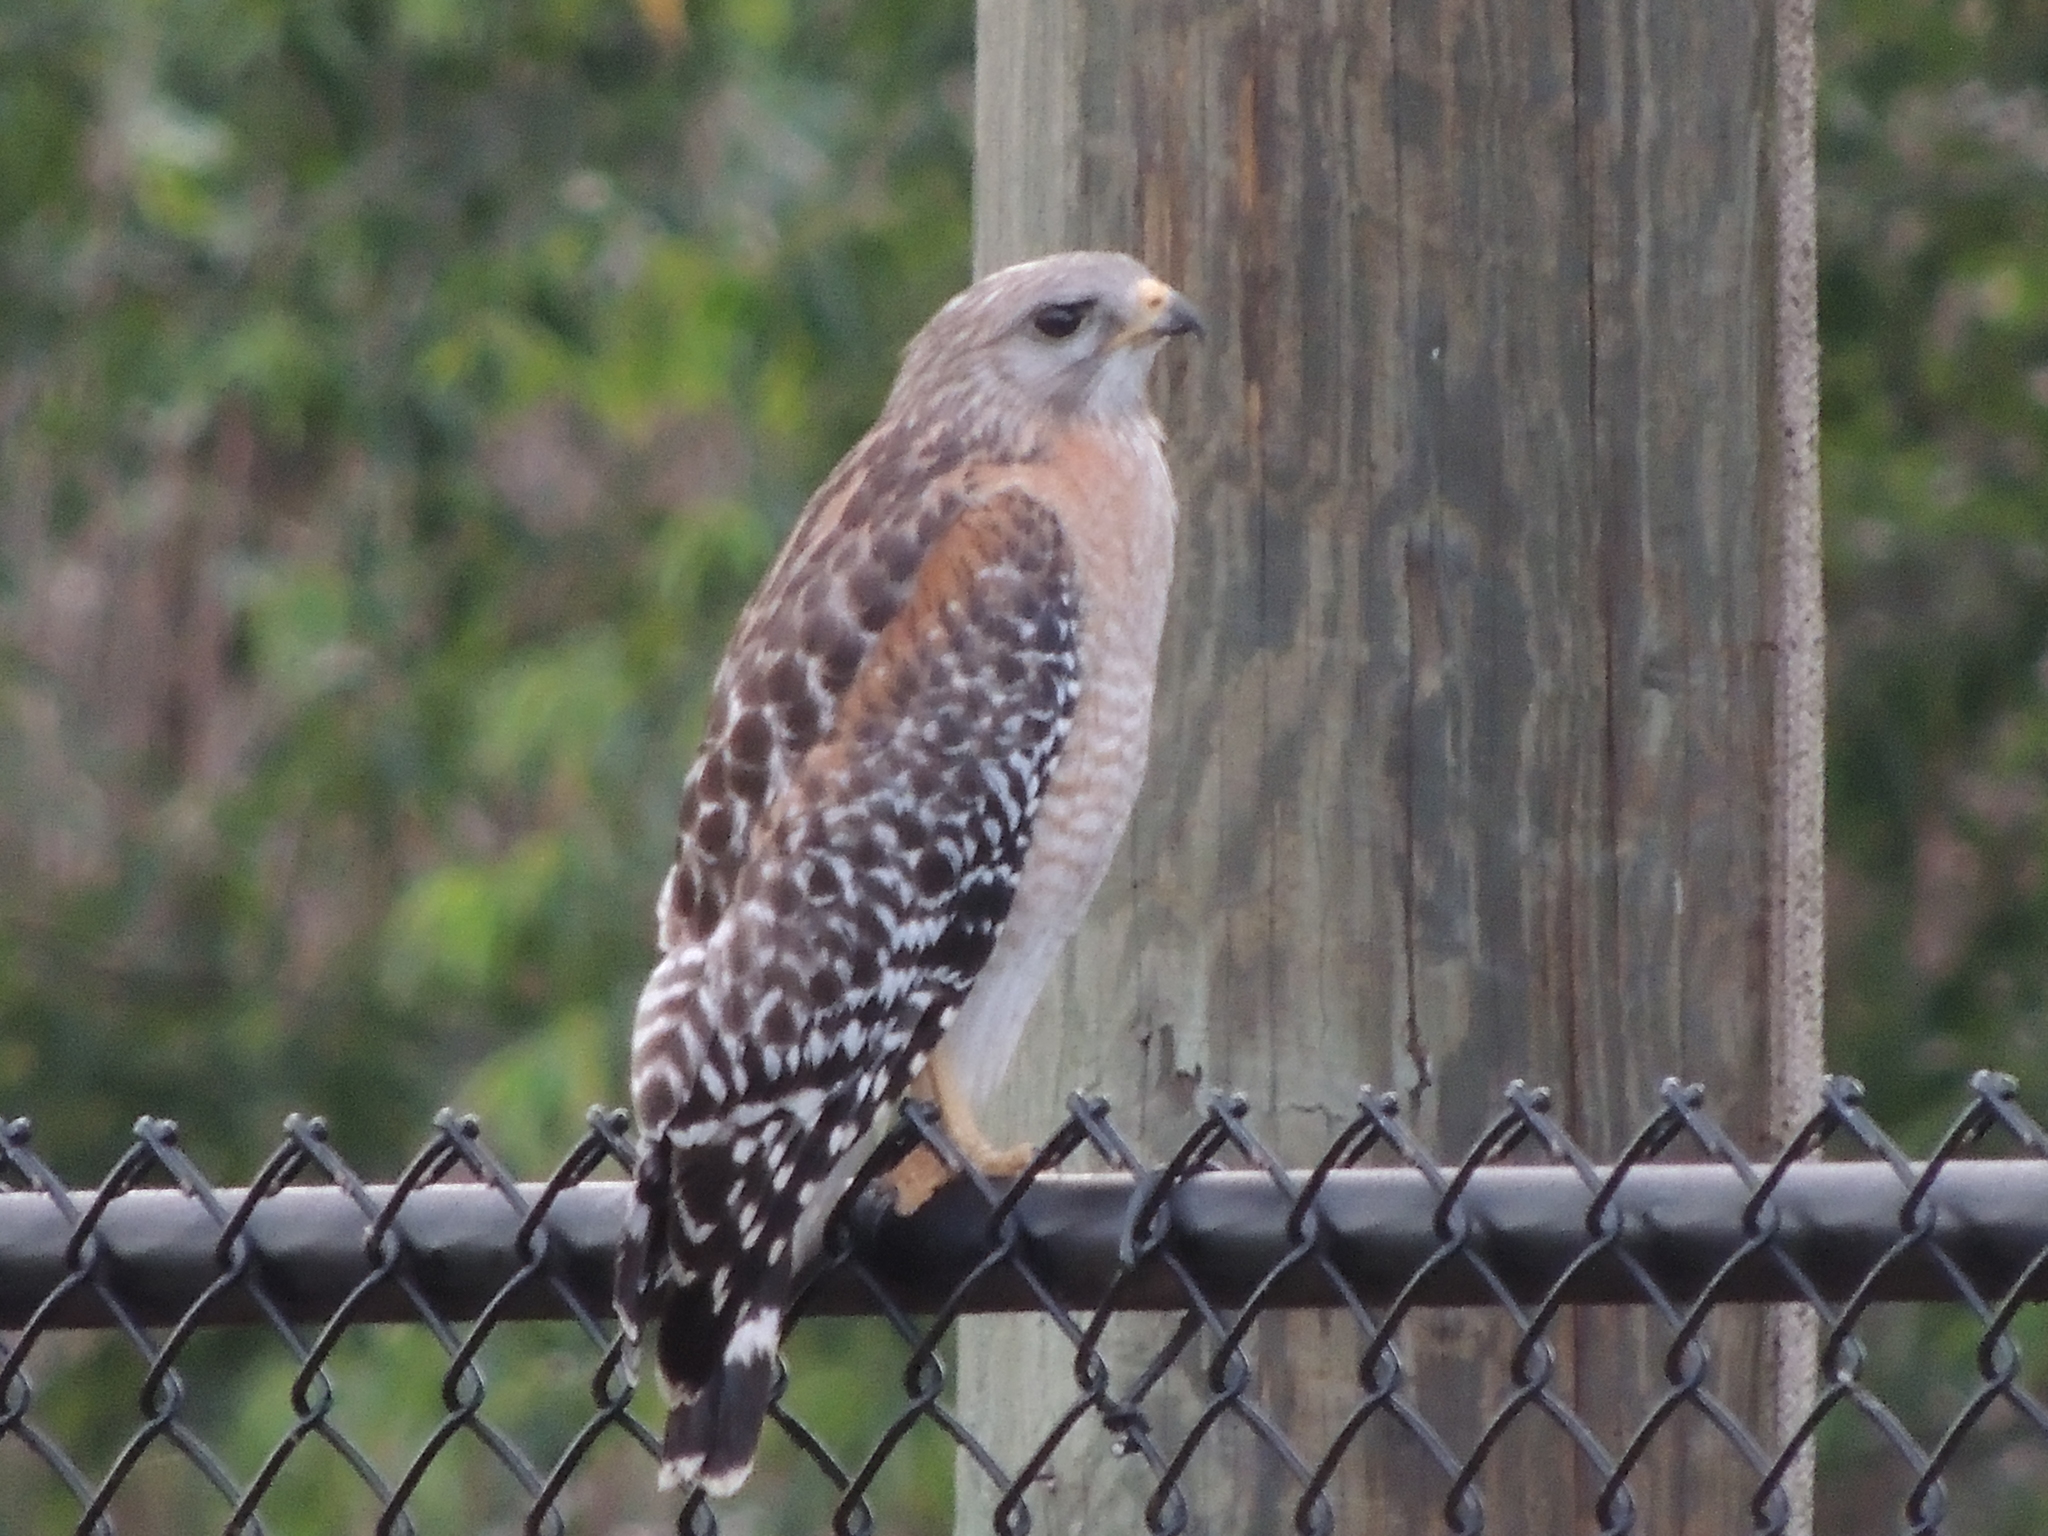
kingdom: Animalia
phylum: Chordata
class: Aves
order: Accipitriformes
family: Accipitridae
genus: Buteo
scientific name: Buteo lineatus
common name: Red-shouldered hawk
